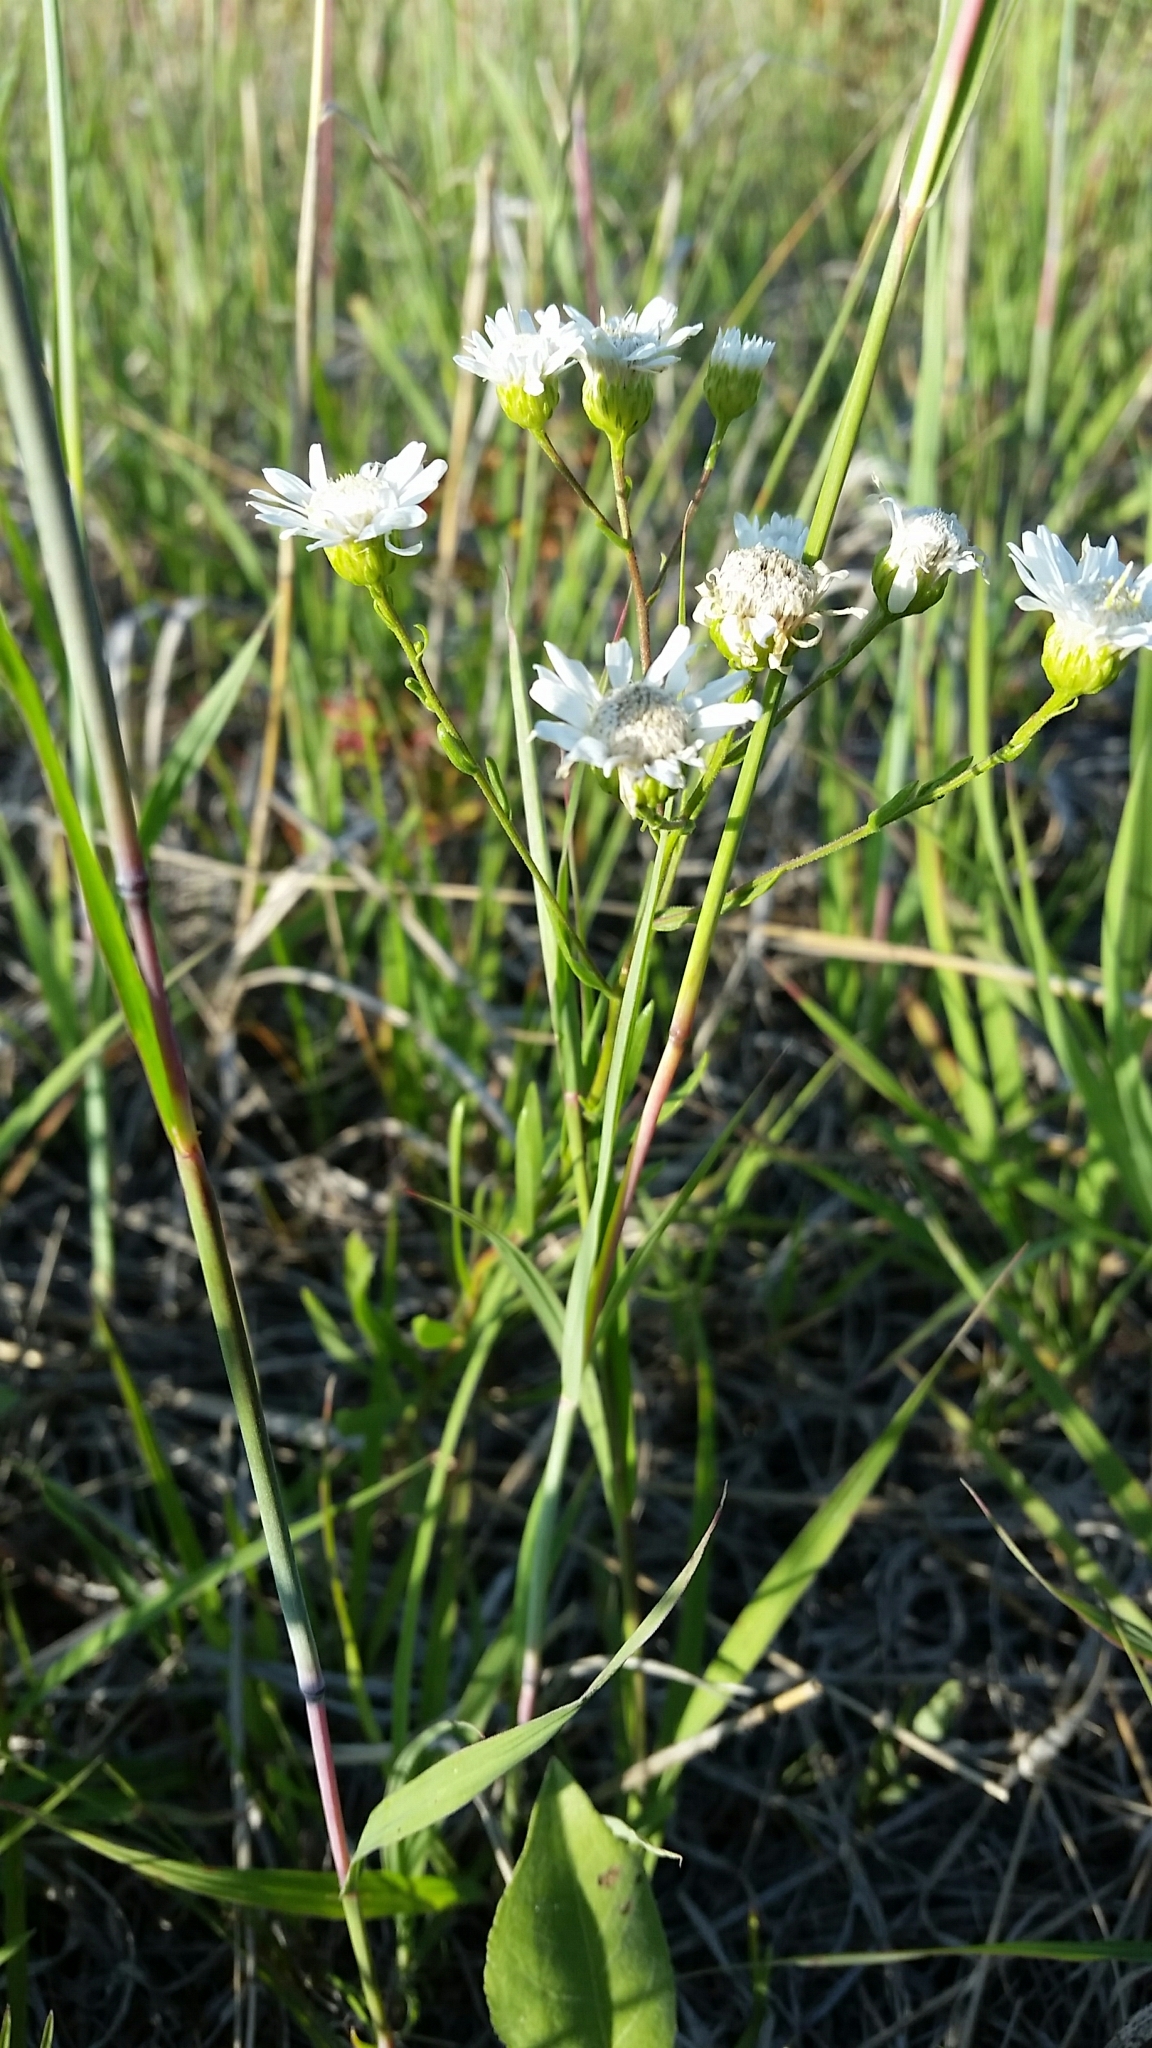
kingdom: Plantae
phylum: Tracheophyta
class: Magnoliopsida
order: Asterales
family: Asteraceae
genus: Solidago
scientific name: Solidago ptarmicoides
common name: White flat-top goldenrod
